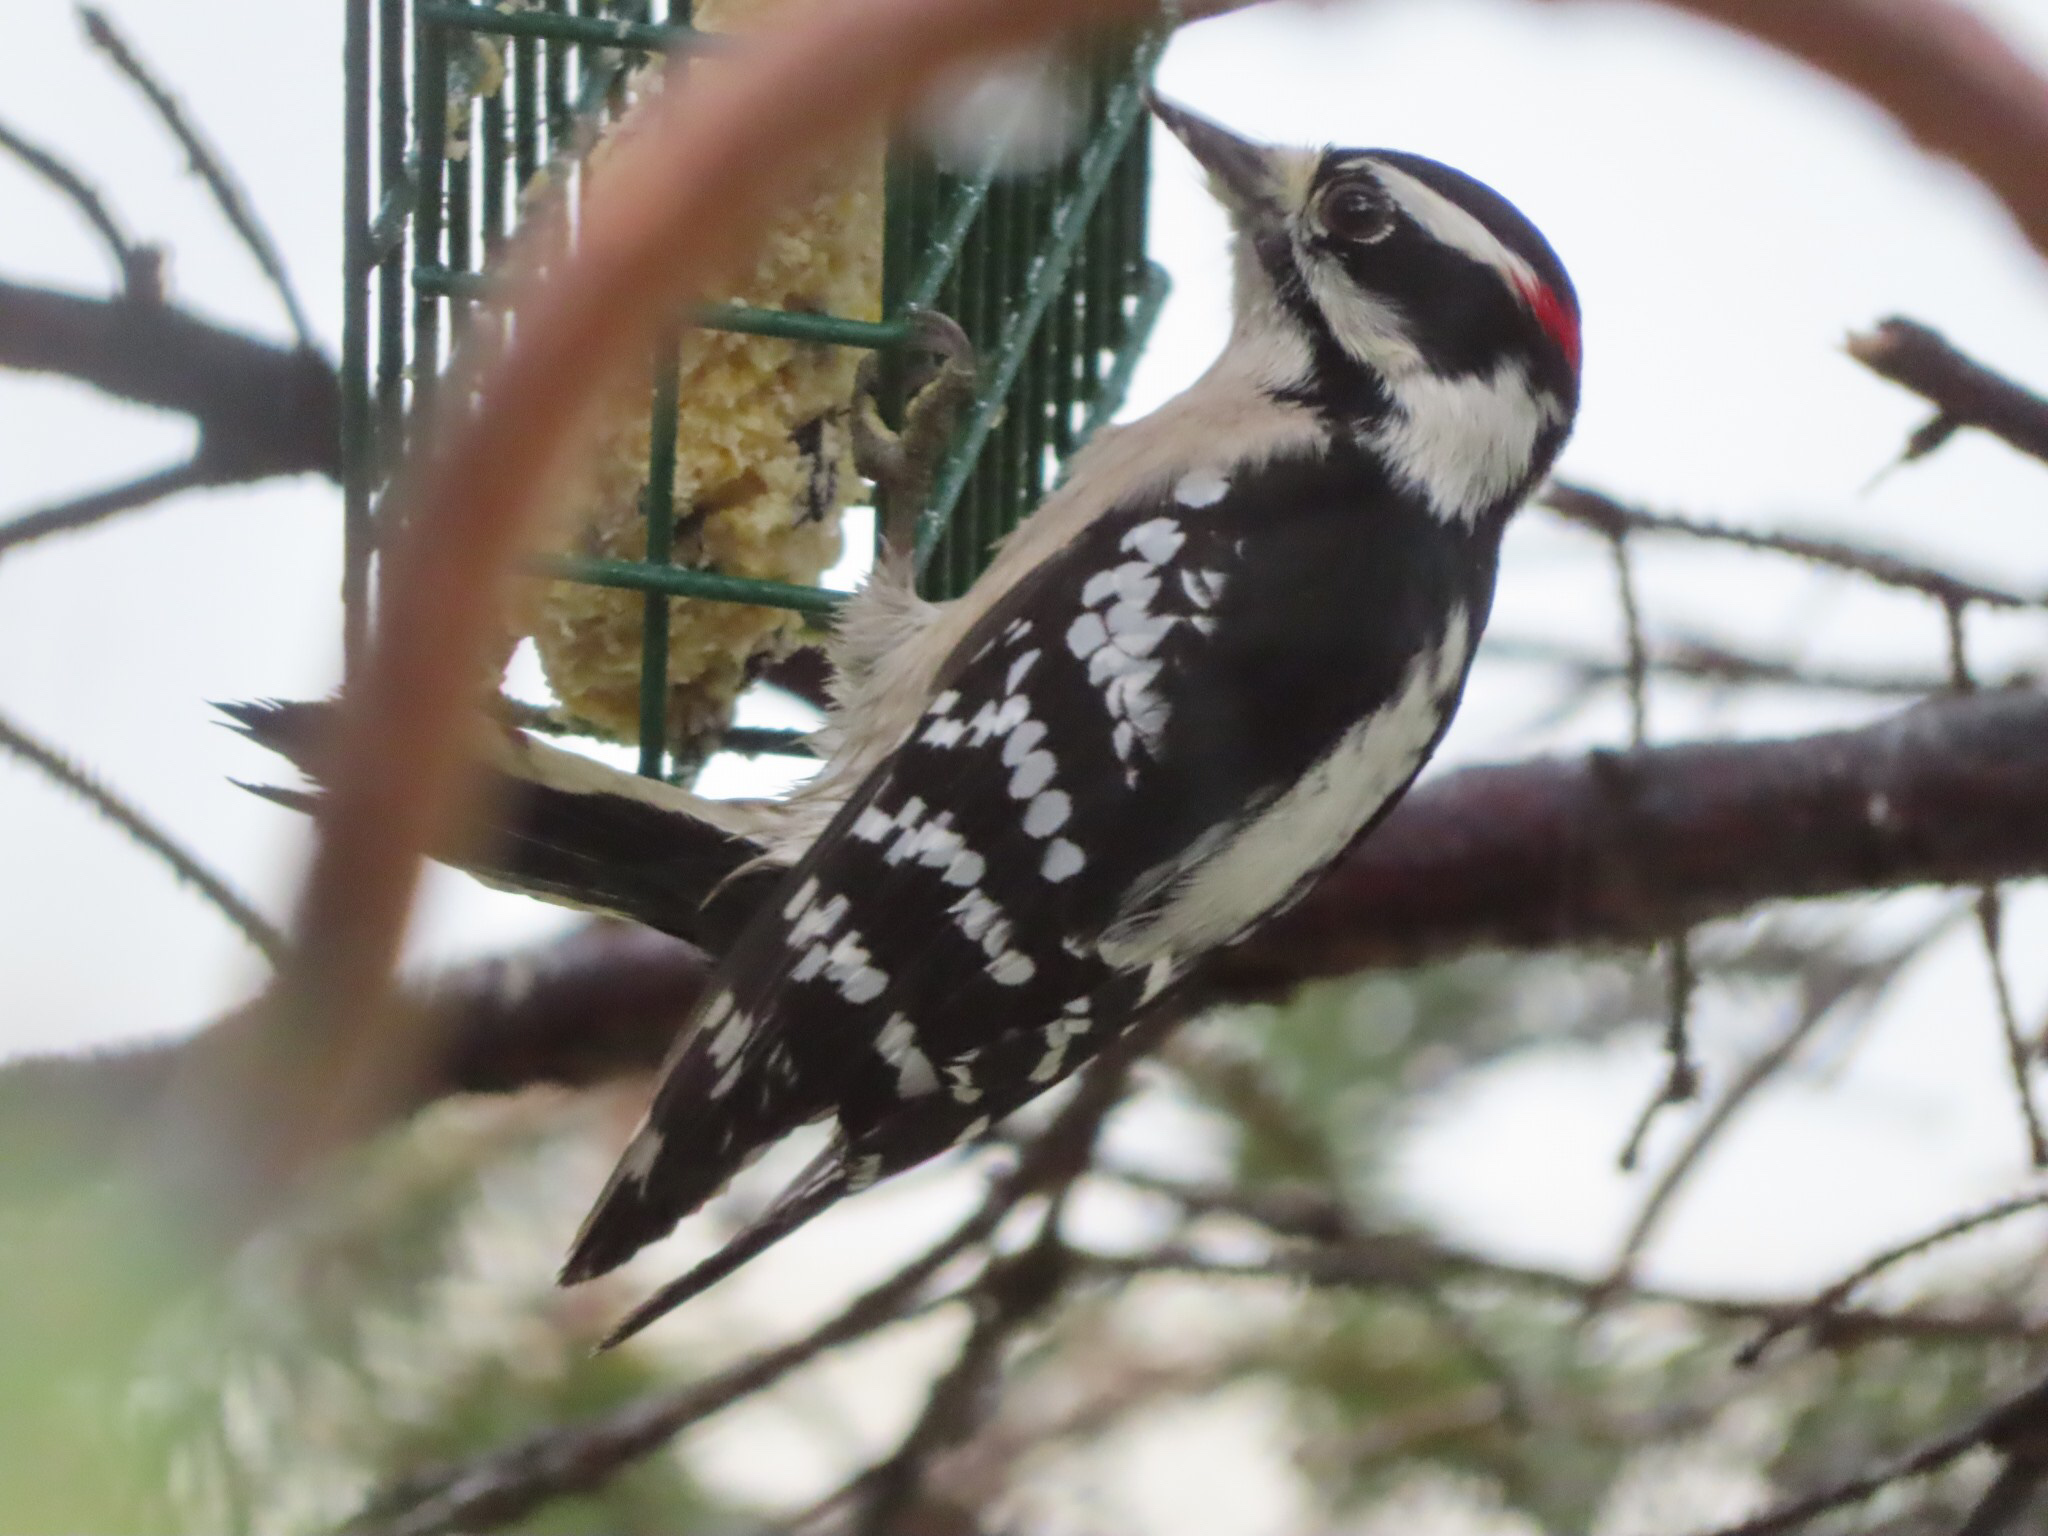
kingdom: Animalia
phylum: Chordata
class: Aves
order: Piciformes
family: Picidae
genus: Dryobates
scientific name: Dryobates pubescens
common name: Downy woodpecker
